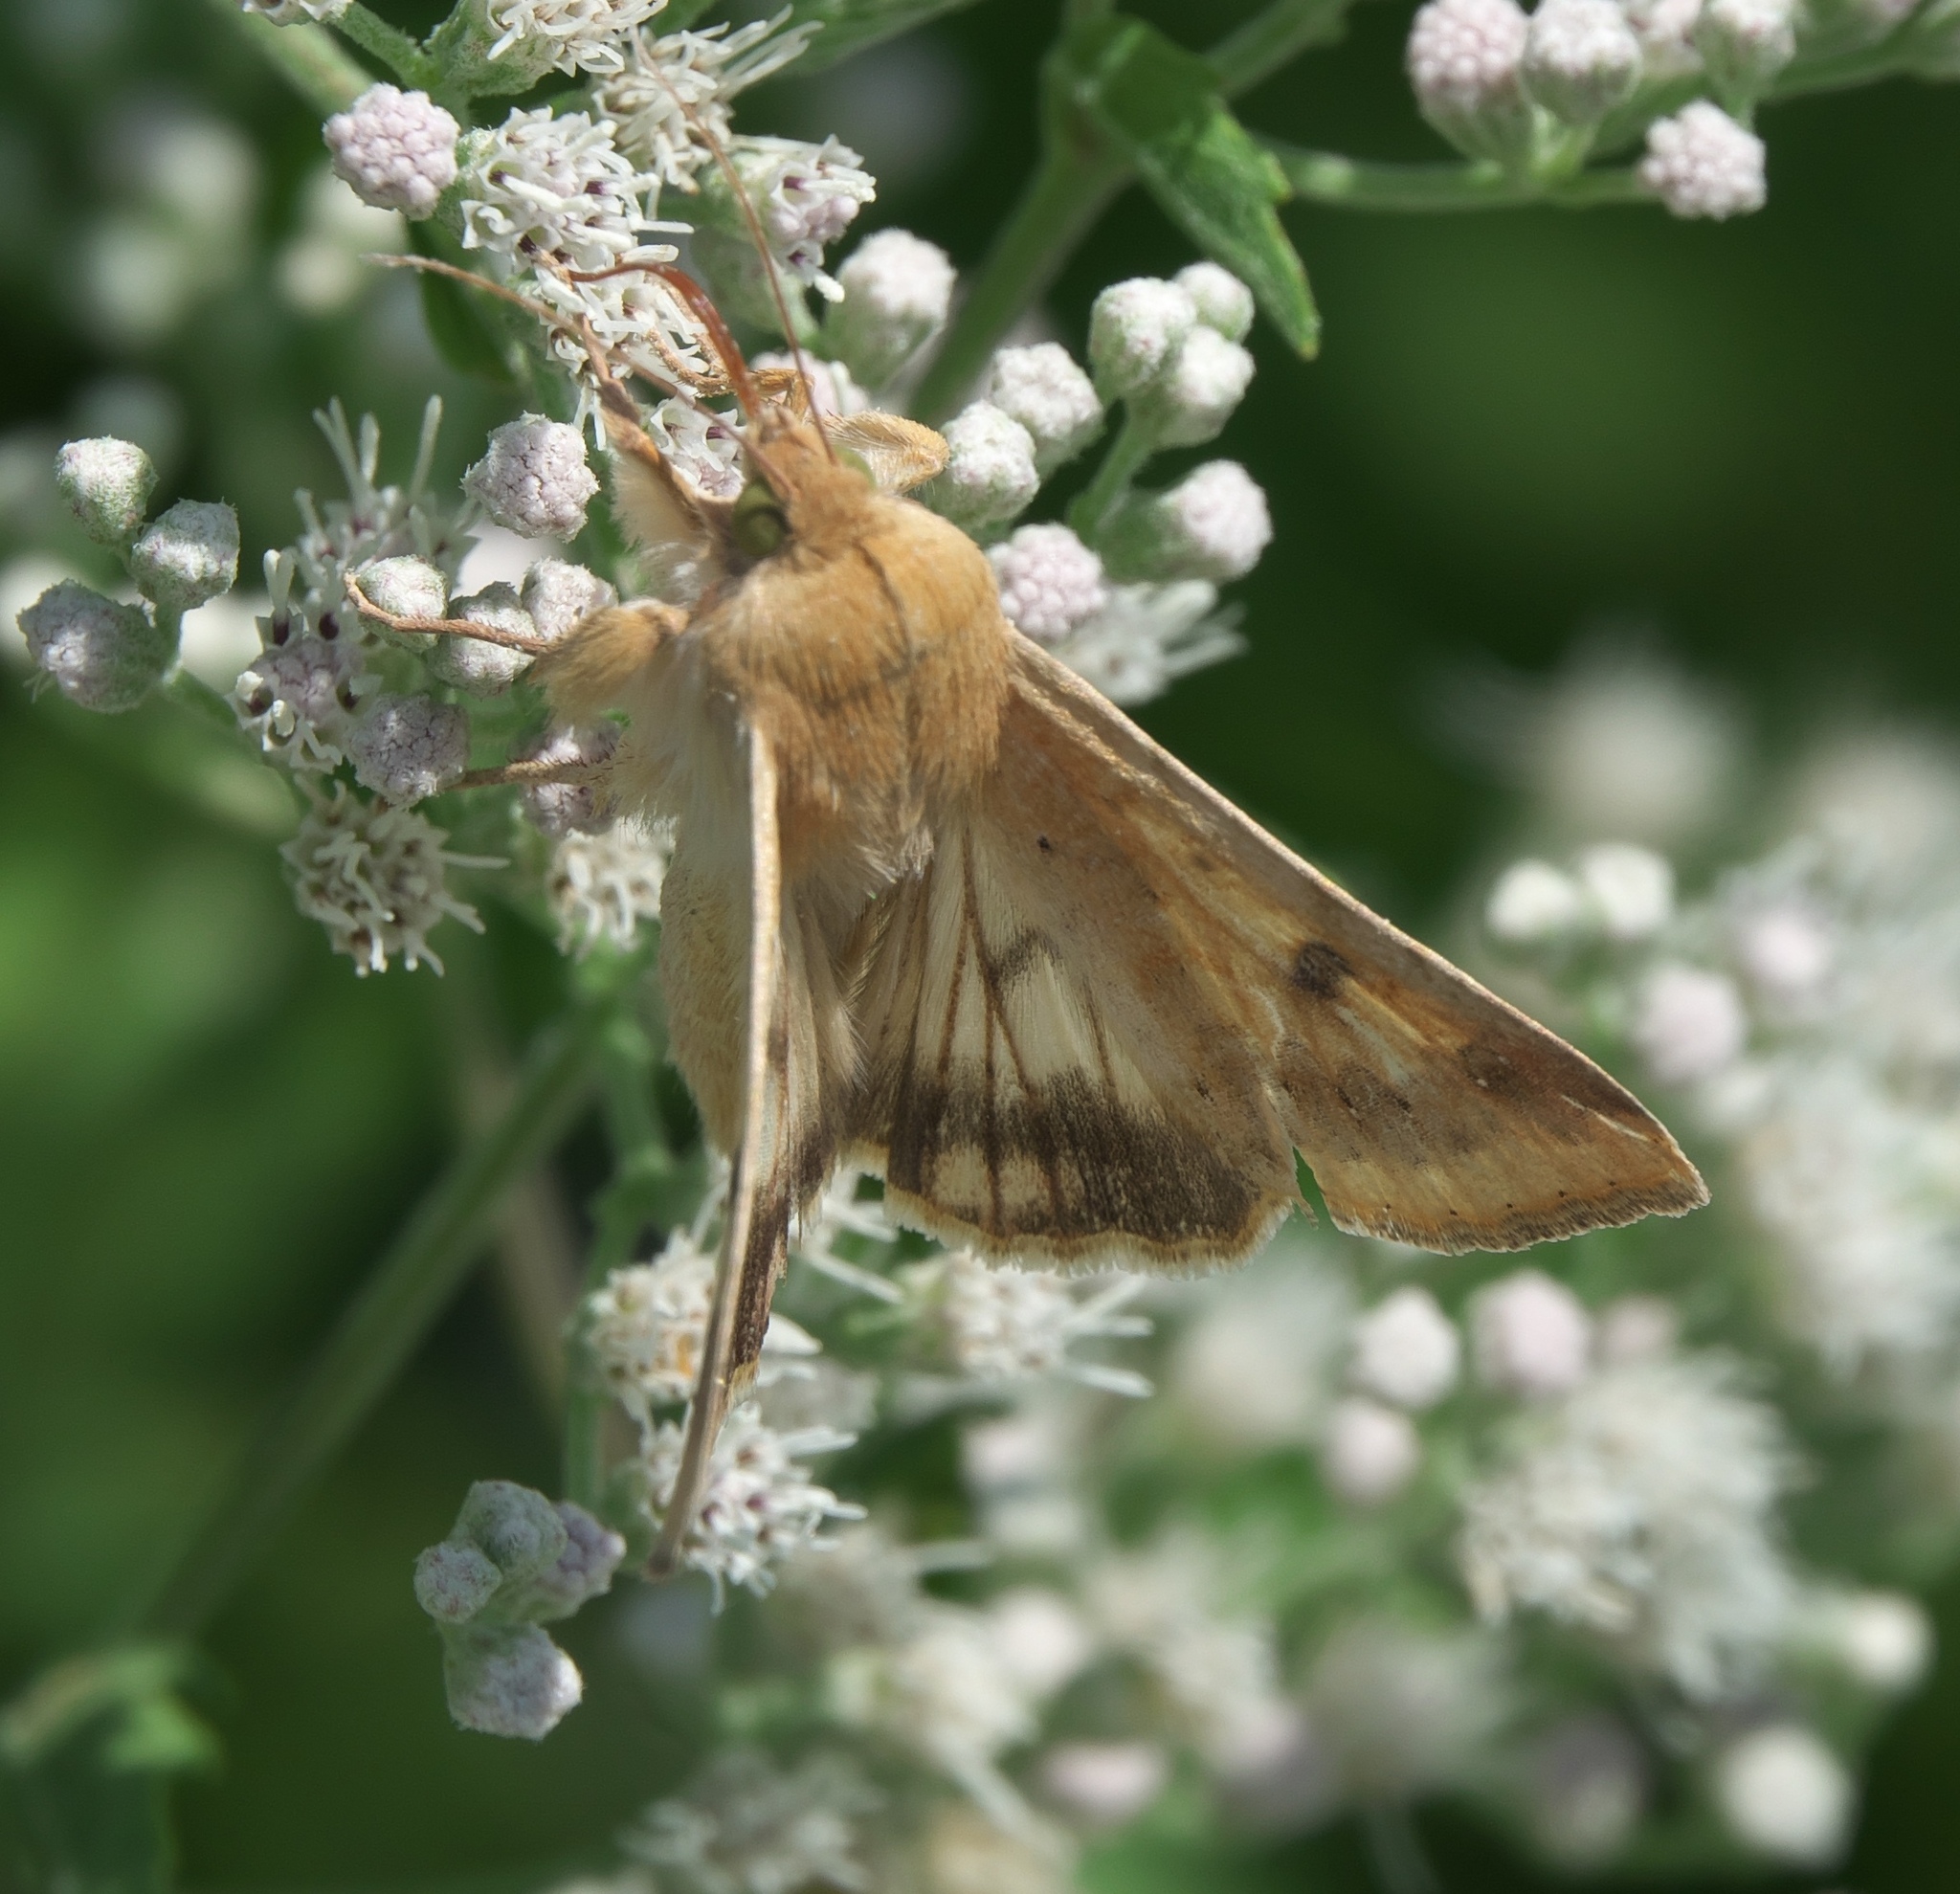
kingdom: Animalia
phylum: Arthropoda
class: Insecta
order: Lepidoptera
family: Noctuidae
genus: Helicoverpa
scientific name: Helicoverpa zea
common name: Bollworm
